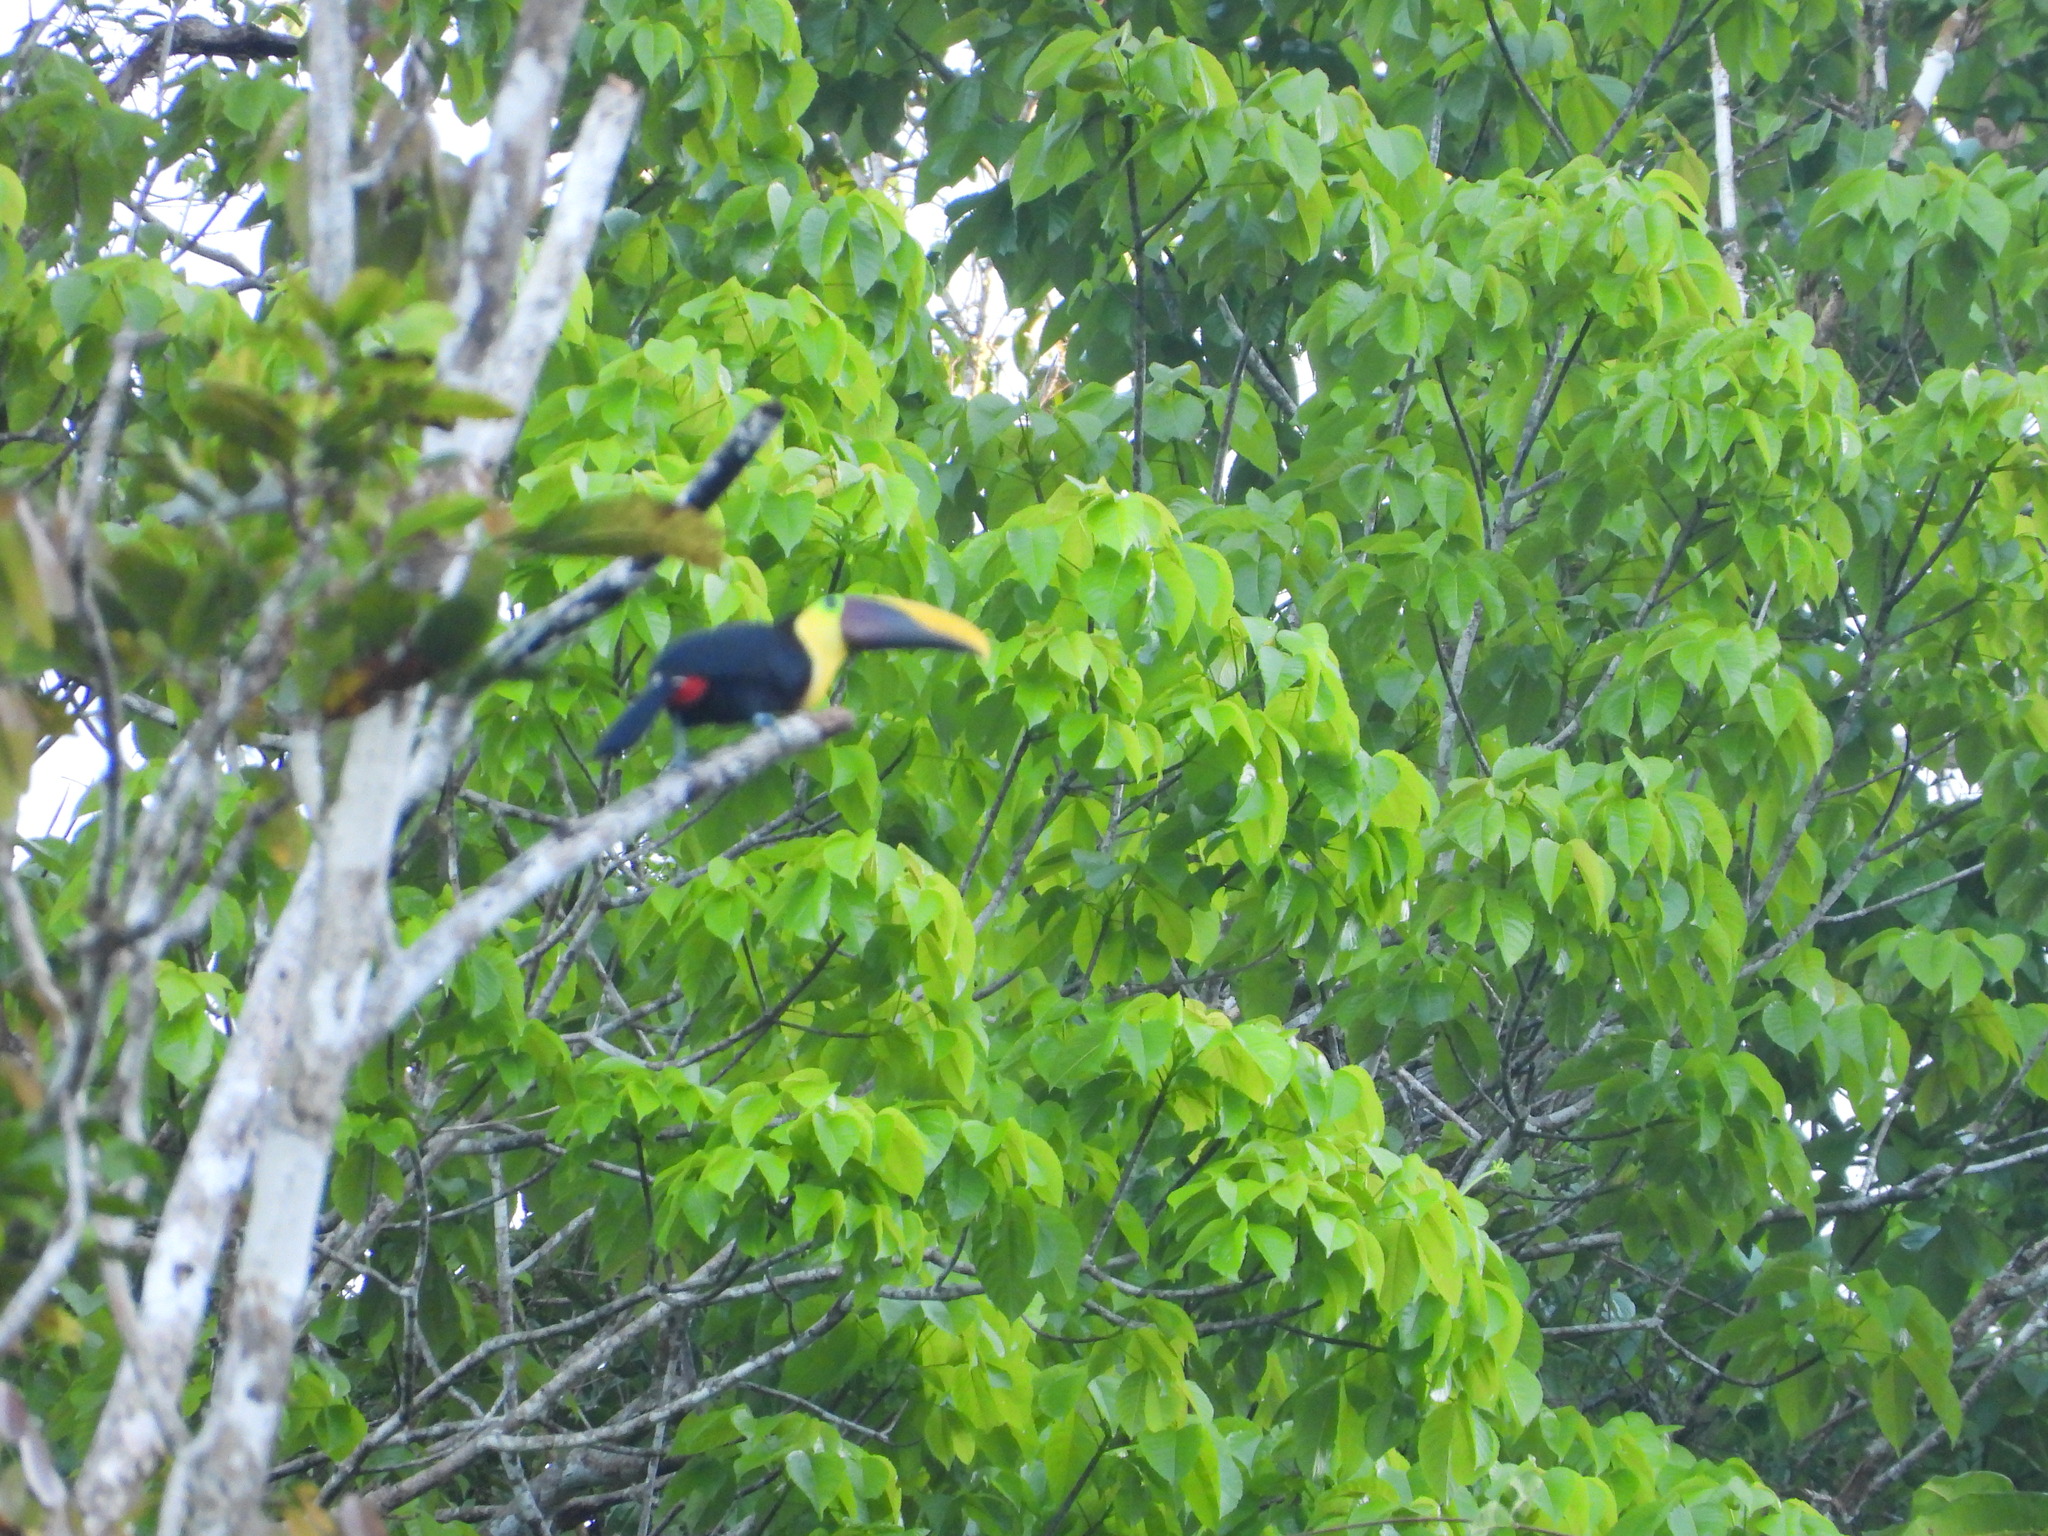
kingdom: Animalia
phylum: Chordata
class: Aves
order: Piciformes
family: Ramphastidae
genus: Ramphastos
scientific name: Ramphastos ambiguus
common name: Yellow-throated toucan
